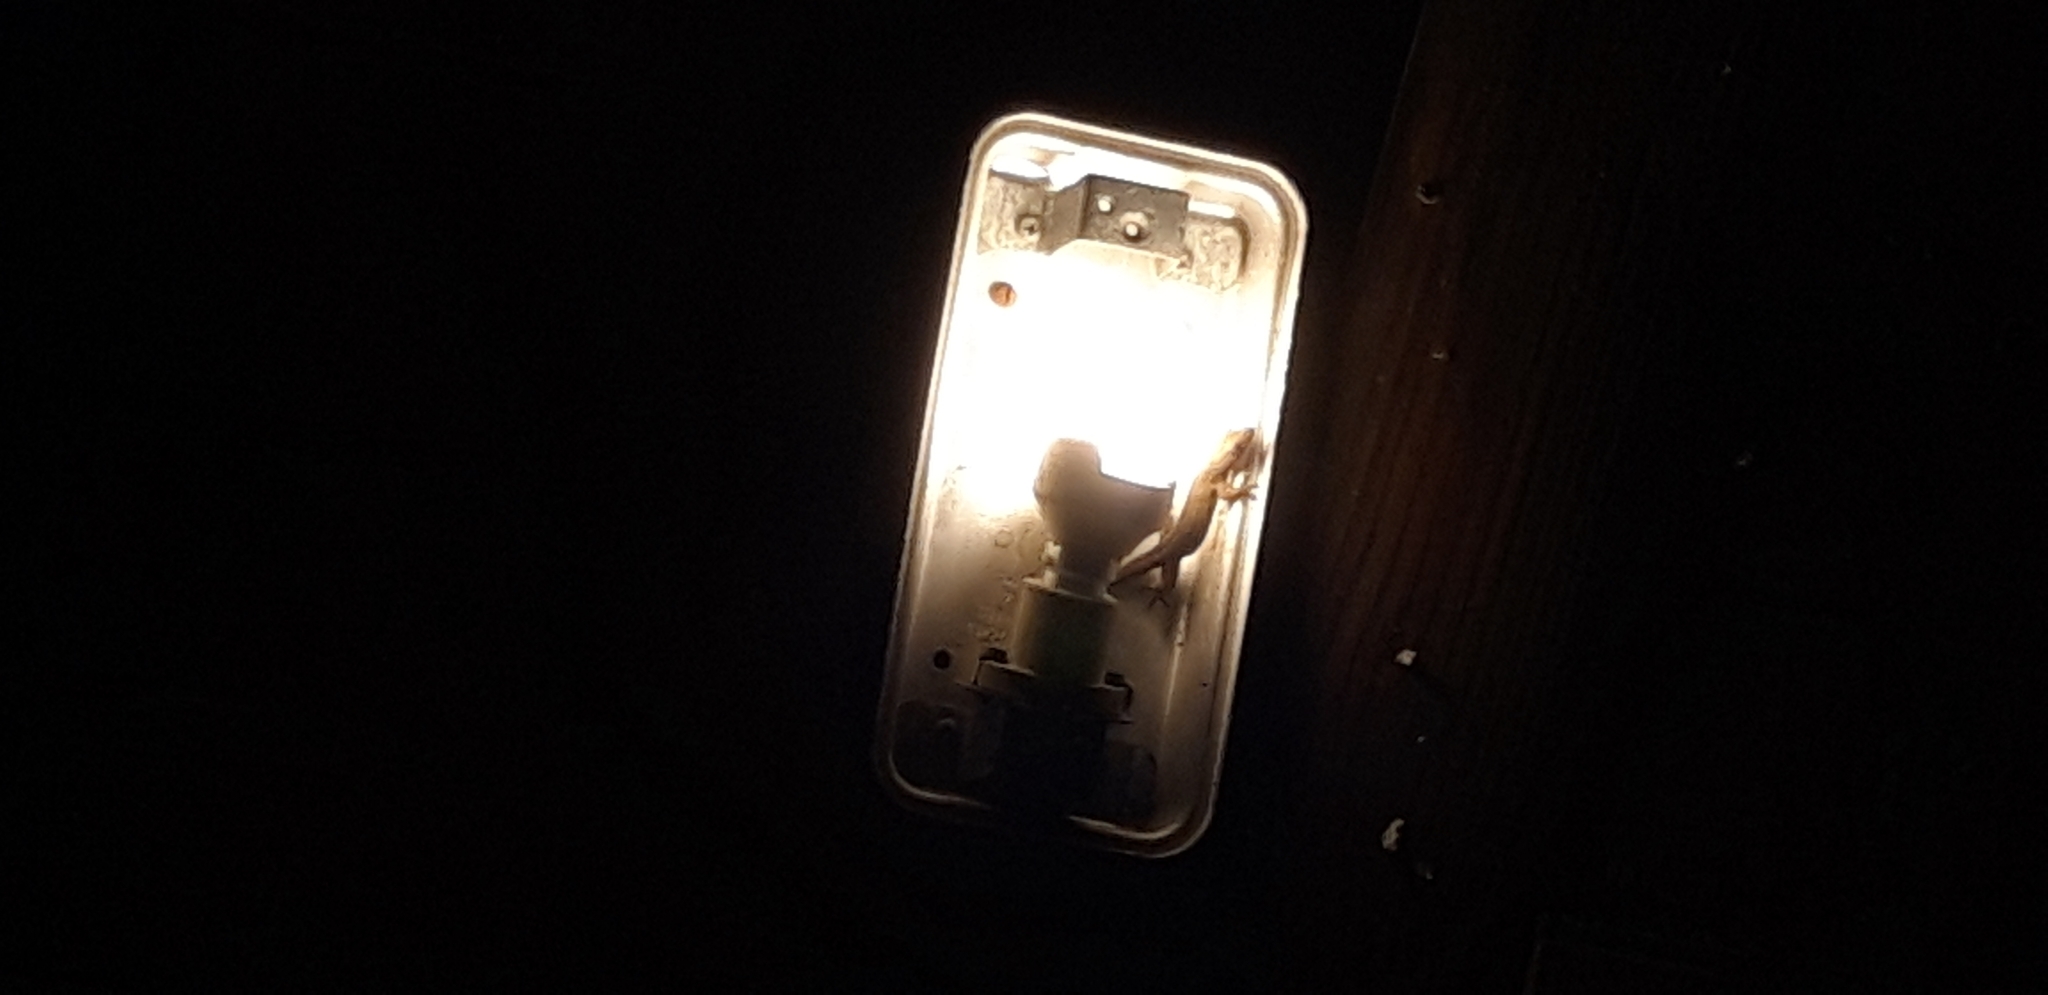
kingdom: Animalia
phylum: Chordata
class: Squamata
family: Gekkonidae
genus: Hemidactylus
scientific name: Hemidactylus mabouia
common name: House gecko
